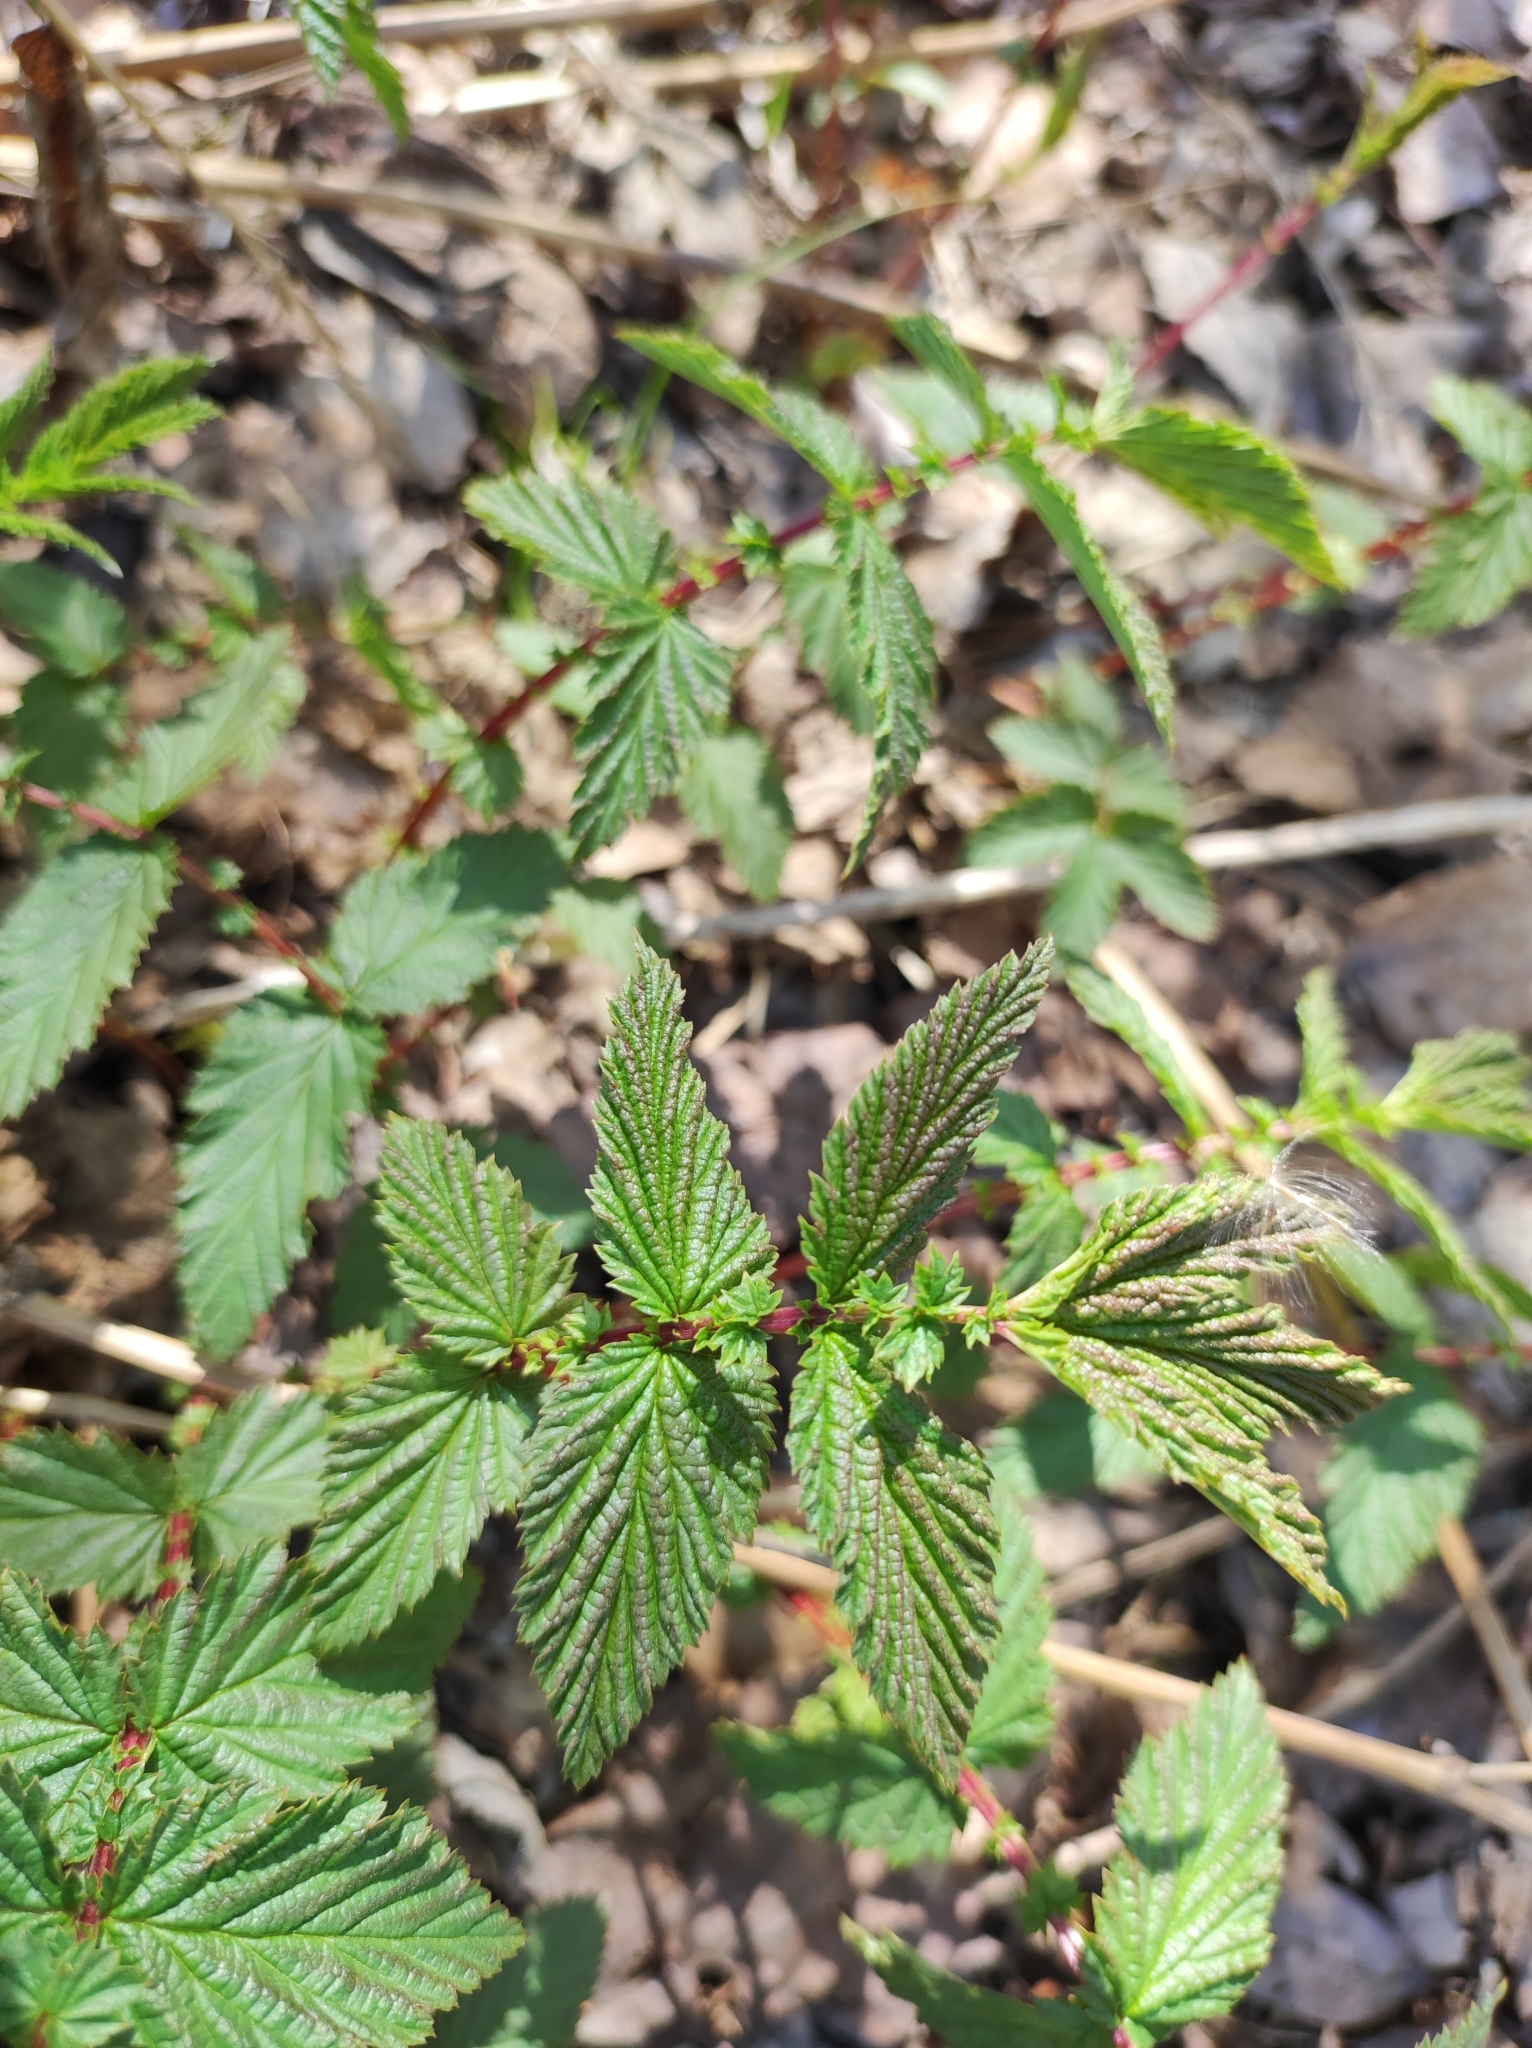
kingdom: Plantae
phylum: Tracheophyta
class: Magnoliopsida
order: Rosales
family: Rosaceae
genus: Filipendula
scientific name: Filipendula ulmaria
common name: Meadowsweet
